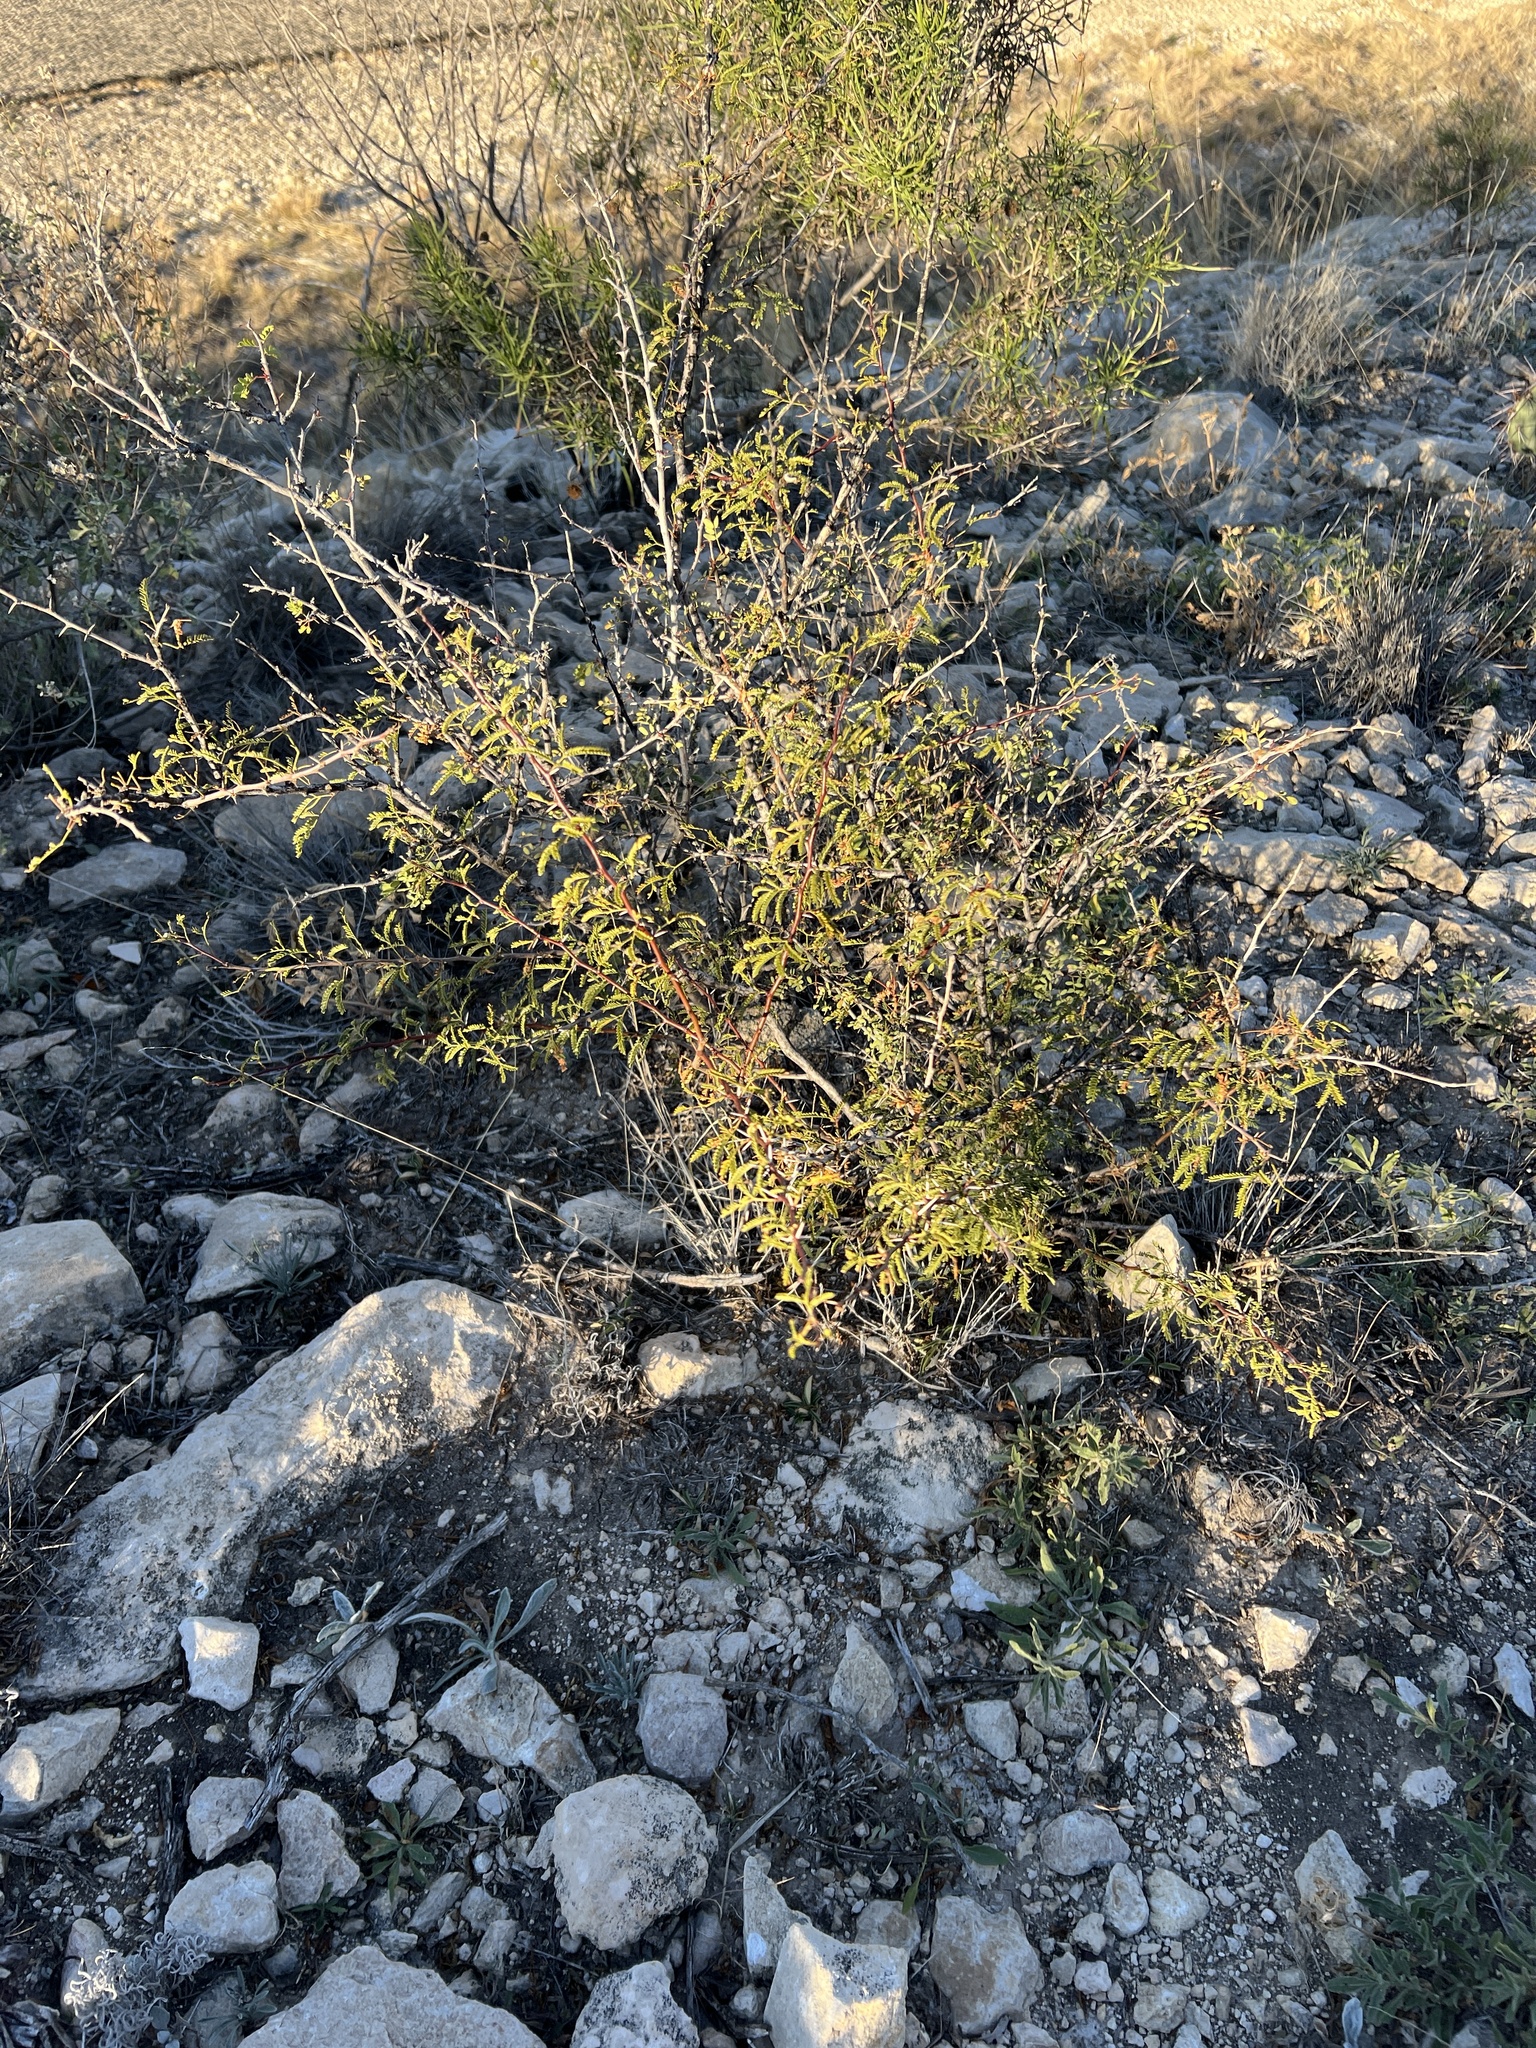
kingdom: Plantae
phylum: Tracheophyta
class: Magnoliopsida
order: Fabales
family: Fabaceae
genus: Vachellia
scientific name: Vachellia vernicosa
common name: Viscid acacia
